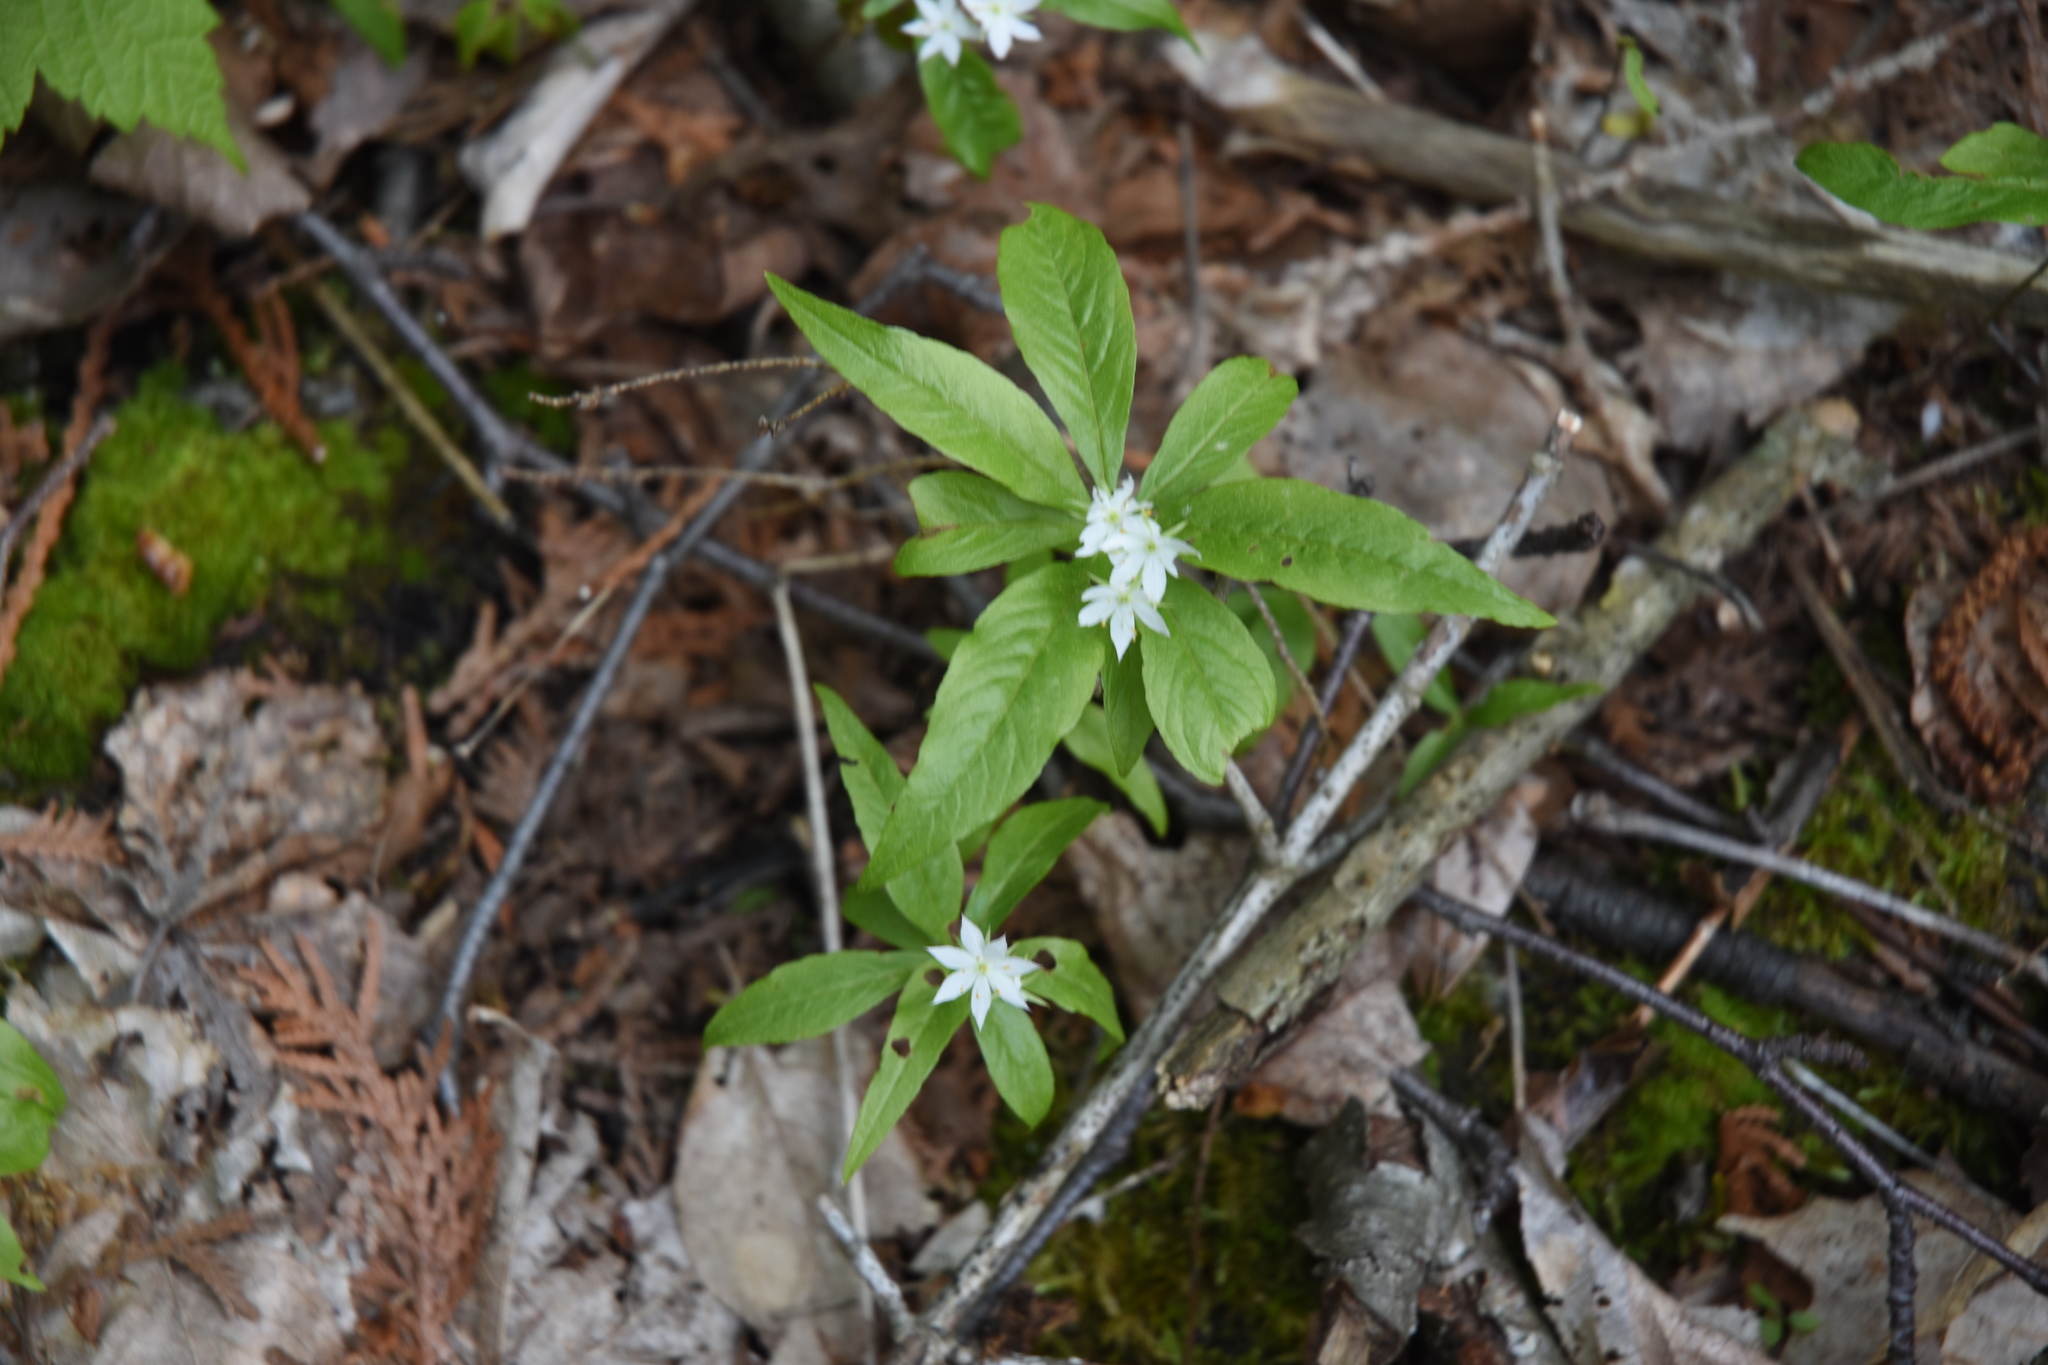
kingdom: Plantae
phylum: Tracheophyta
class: Magnoliopsida
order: Ericales
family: Primulaceae
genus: Lysimachia
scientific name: Lysimachia borealis
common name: American starflower
